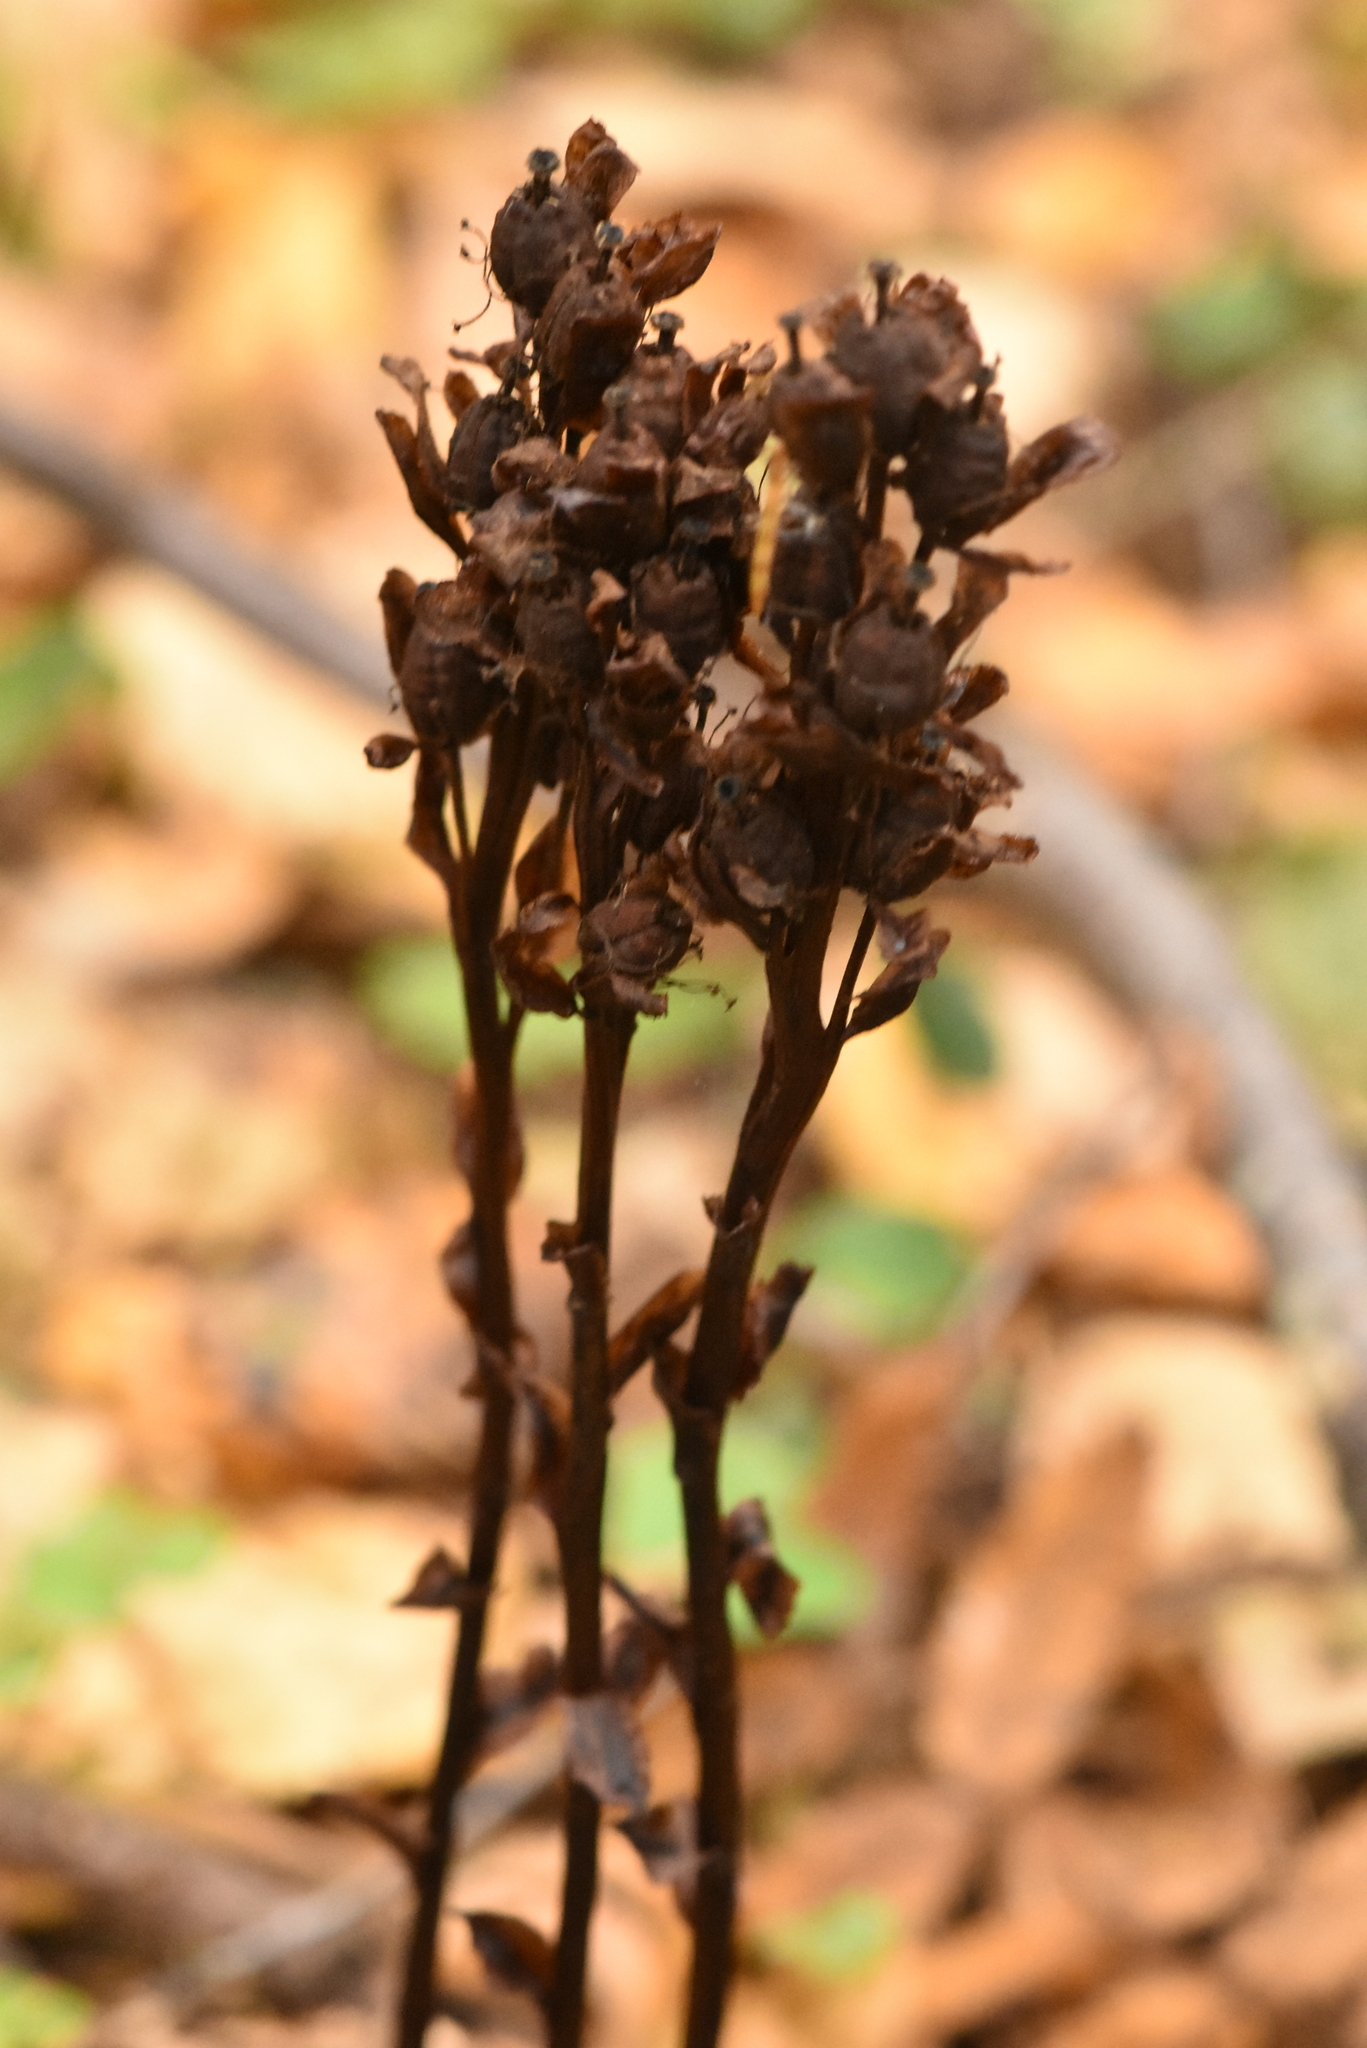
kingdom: Plantae
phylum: Tracheophyta
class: Magnoliopsida
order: Ericales
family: Ericaceae
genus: Hypopitys
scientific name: Hypopitys monotropa
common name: Yellow bird's-nest
